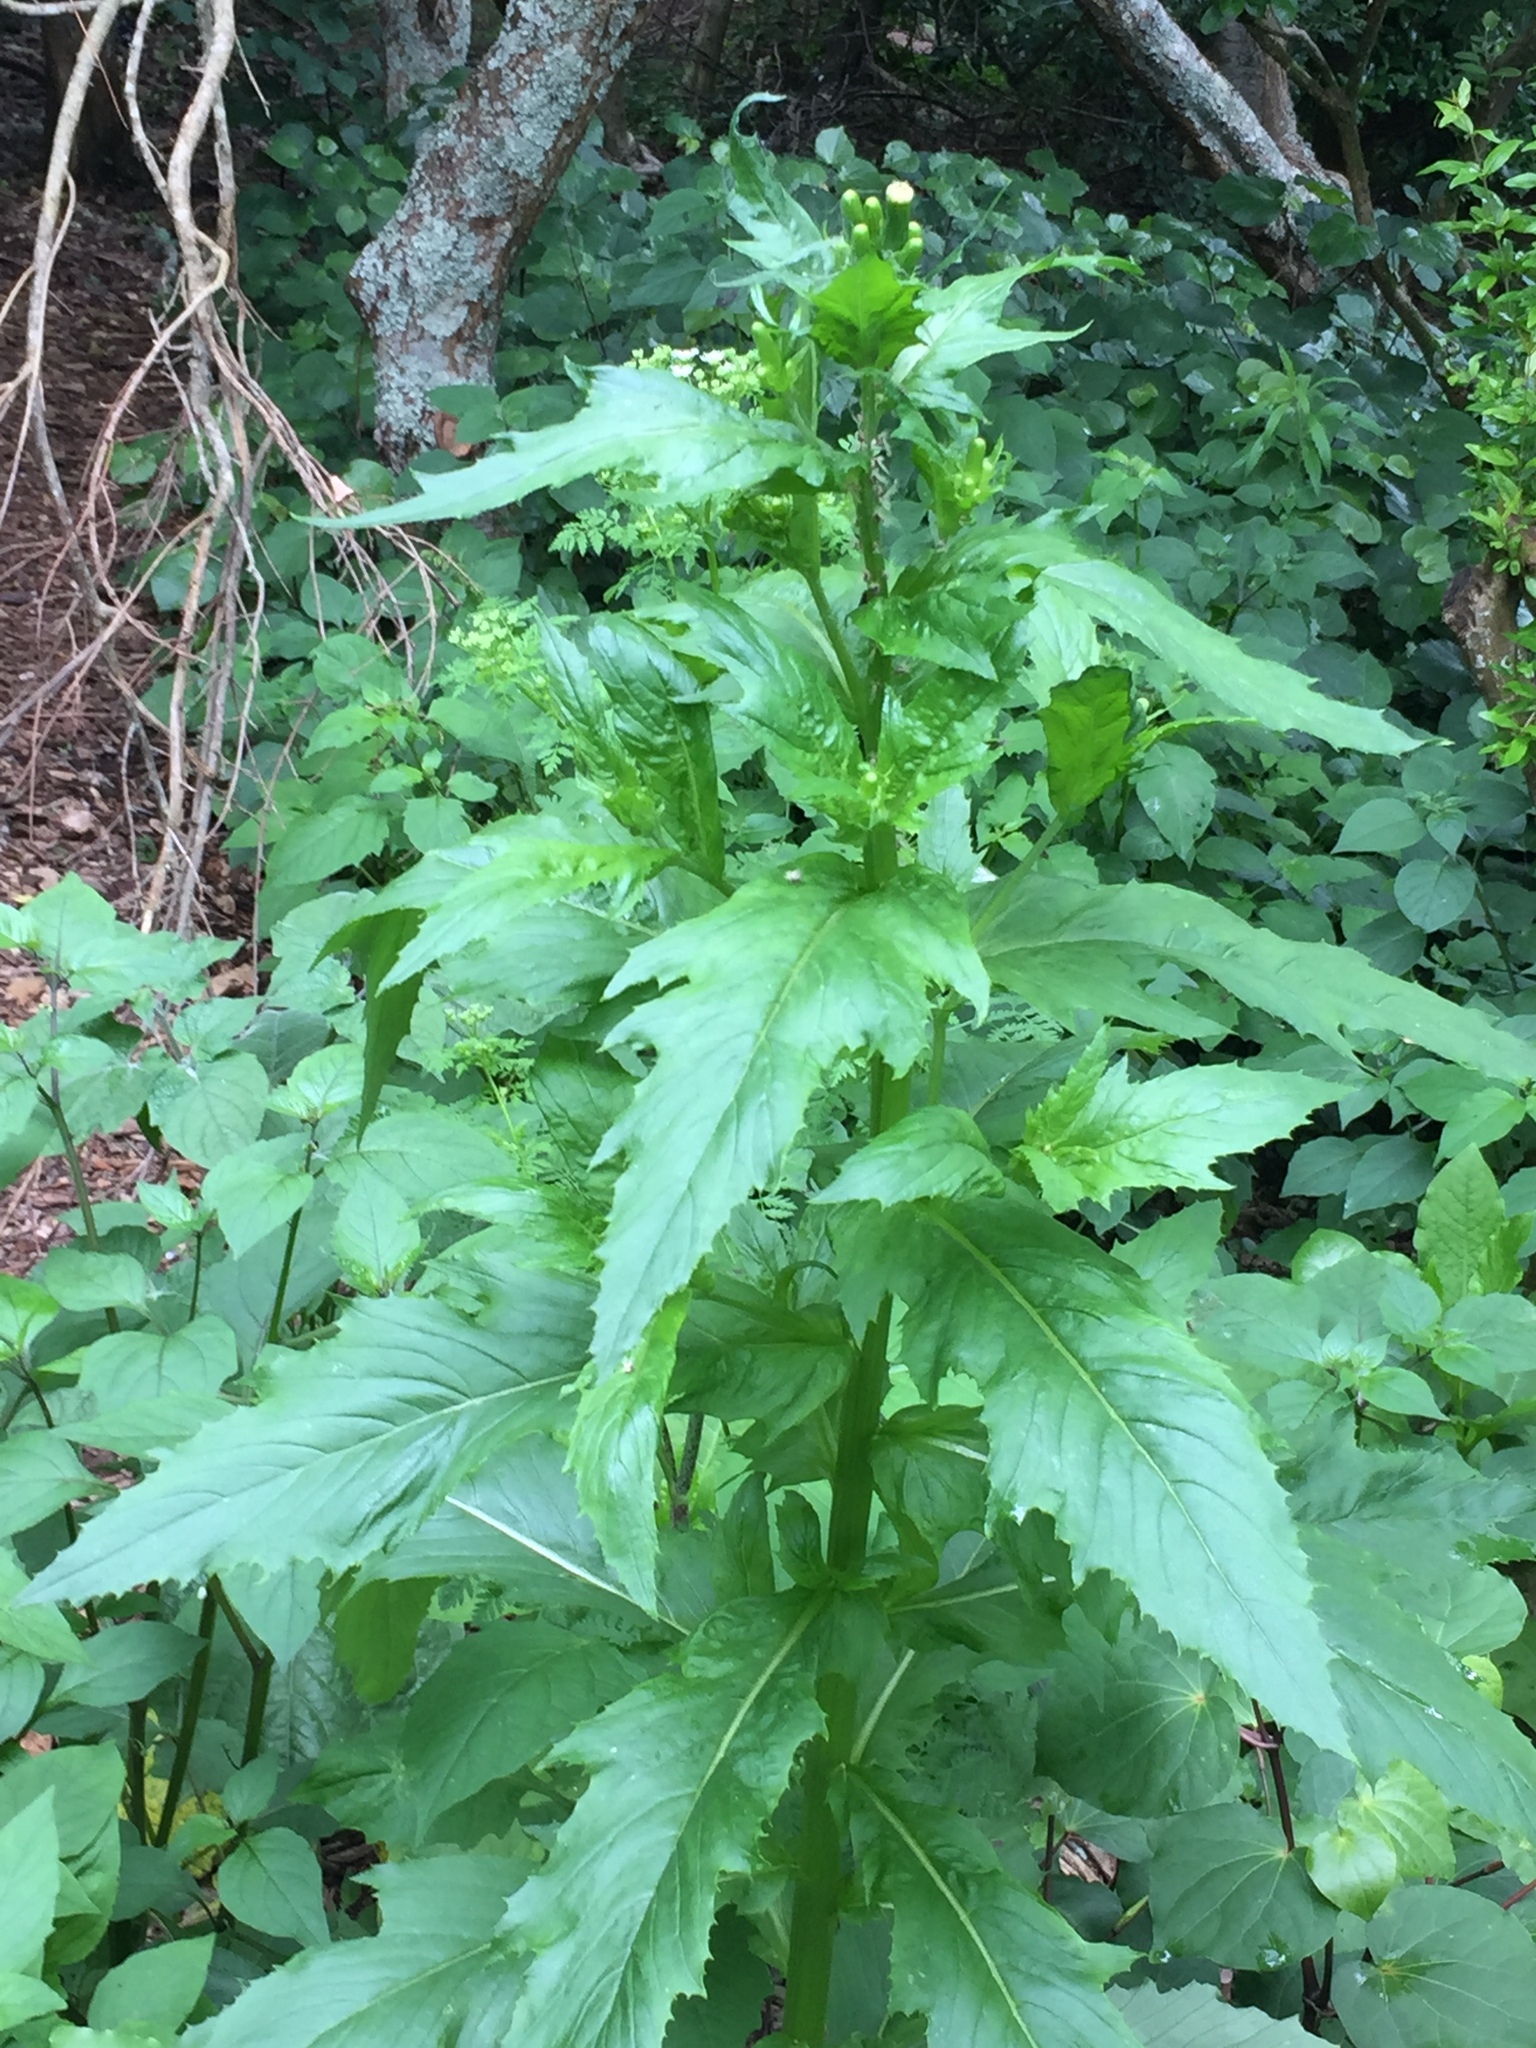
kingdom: Plantae
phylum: Tracheophyta
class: Magnoliopsida
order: Asterales
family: Asteraceae
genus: Erechtites
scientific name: Erechtites hieraciifolius
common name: American burnweed
